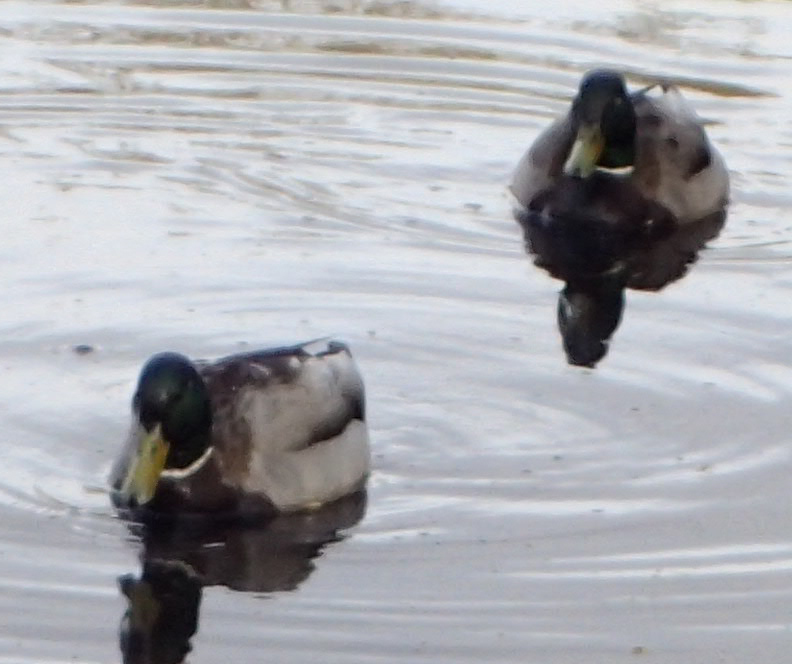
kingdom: Animalia
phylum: Chordata
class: Aves
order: Anseriformes
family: Anatidae
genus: Anas
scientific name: Anas platyrhynchos
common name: Mallard
